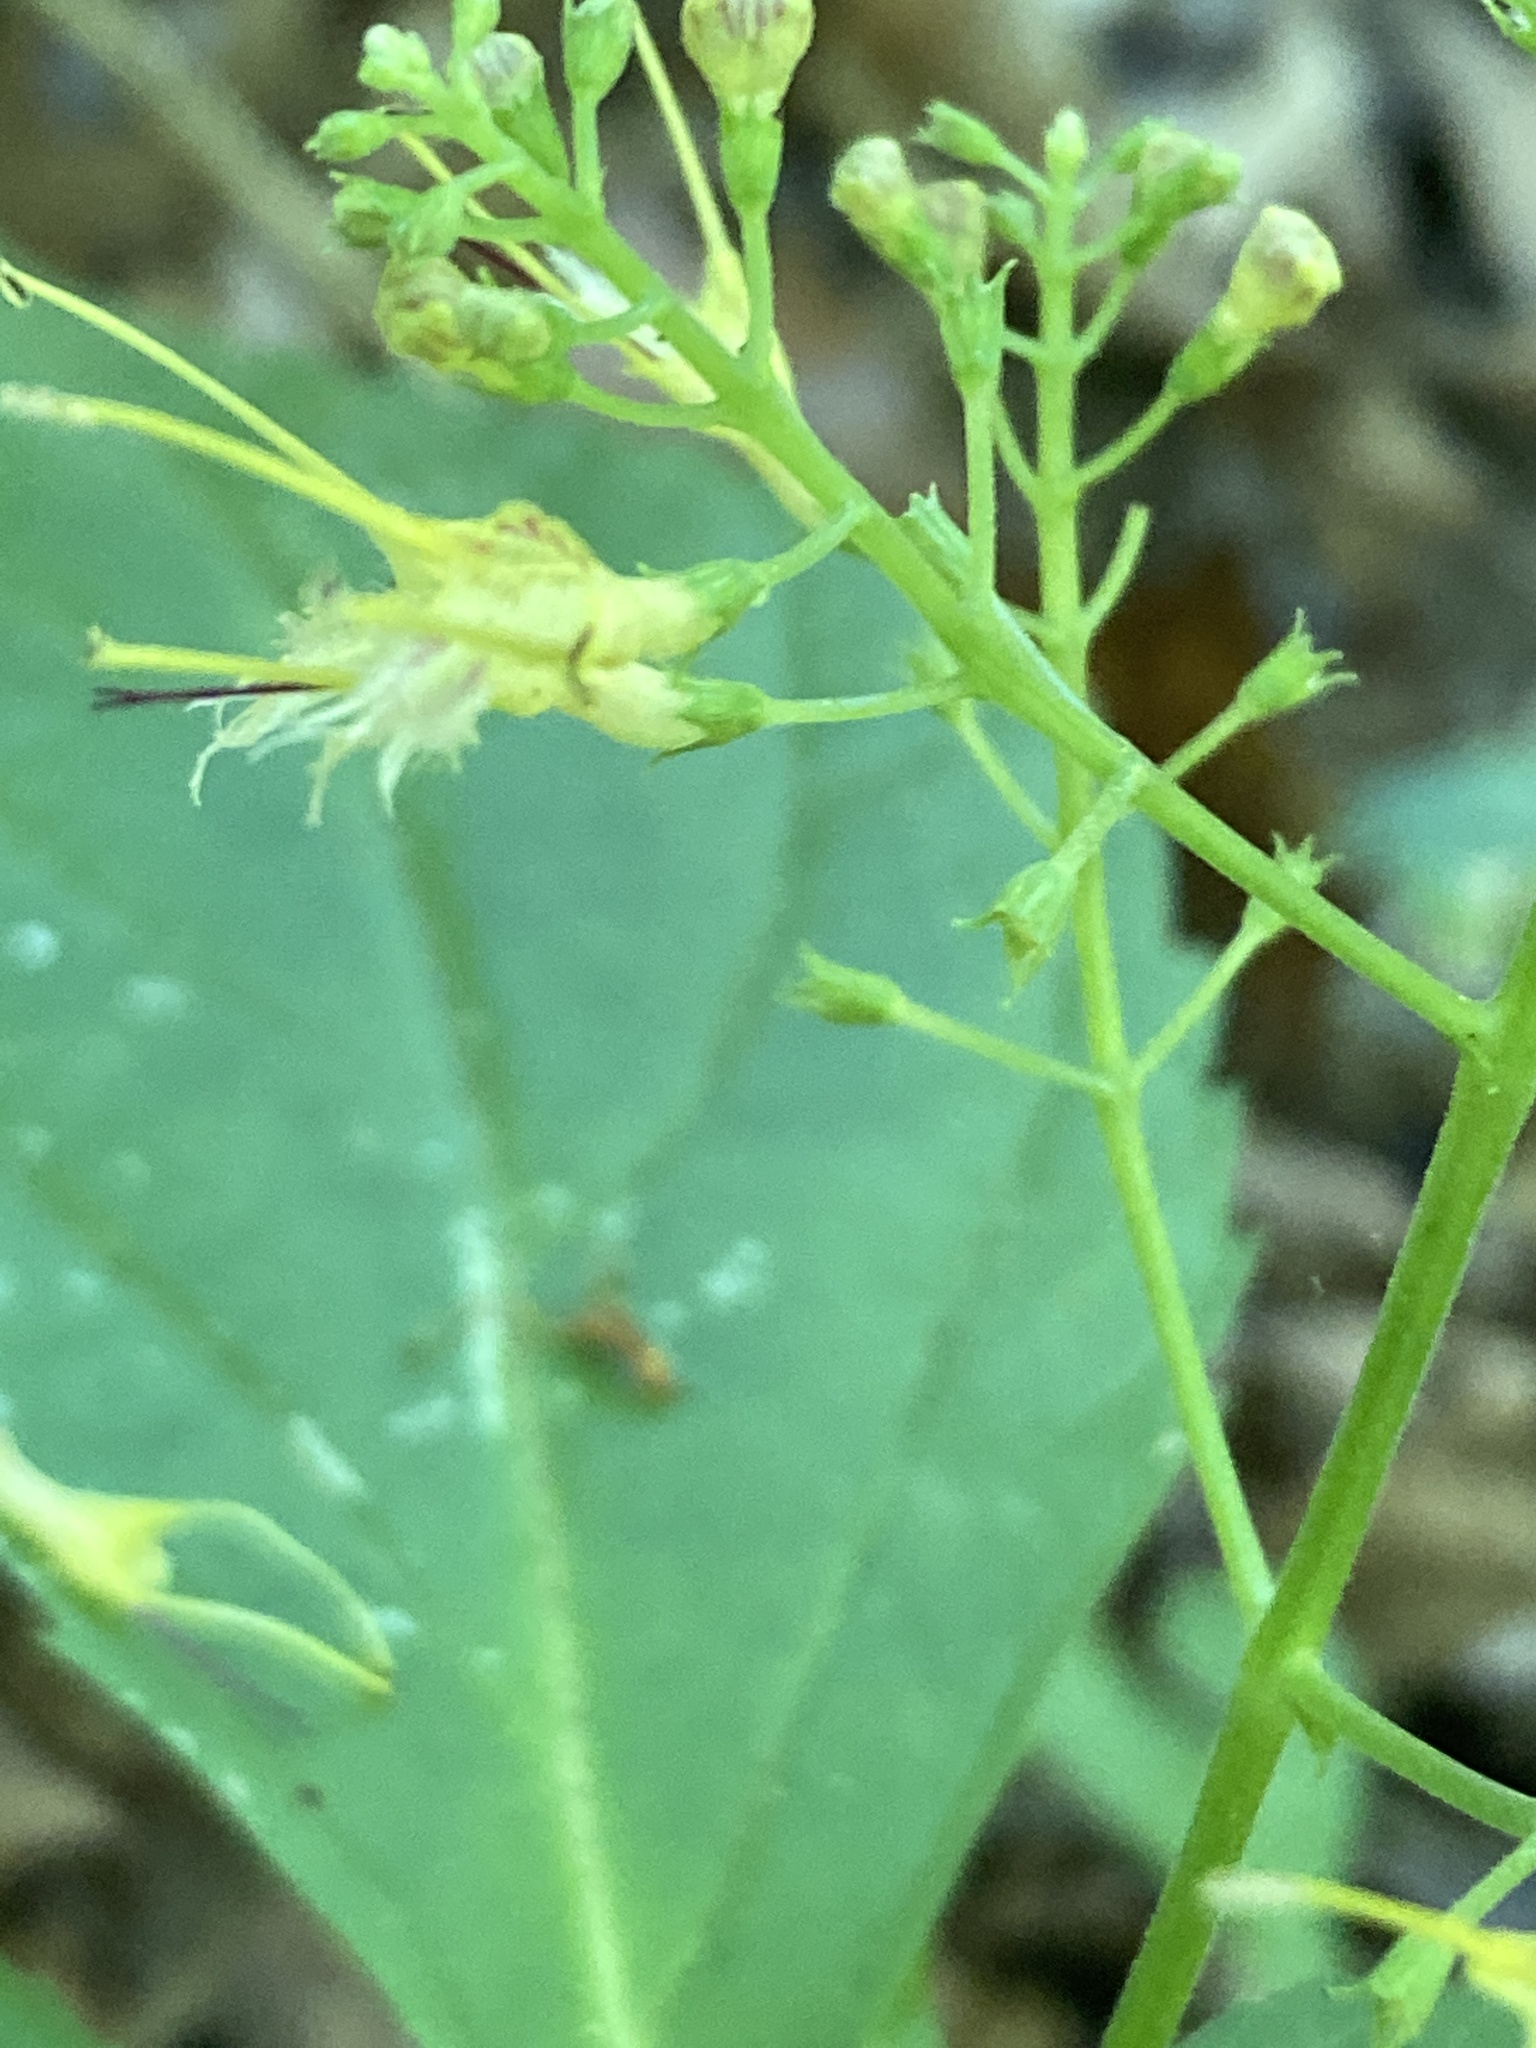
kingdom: Plantae
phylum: Tracheophyta
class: Magnoliopsida
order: Lamiales
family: Lamiaceae
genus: Collinsonia
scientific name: Collinsonia canadensis
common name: Northern horsebalm
